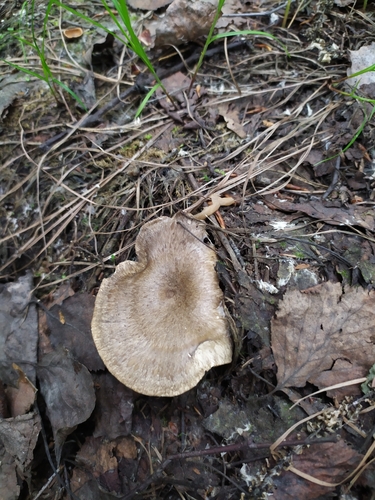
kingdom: Fungi
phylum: Basidiomycota
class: Agaricomycetes
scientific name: Agaricomycetes
